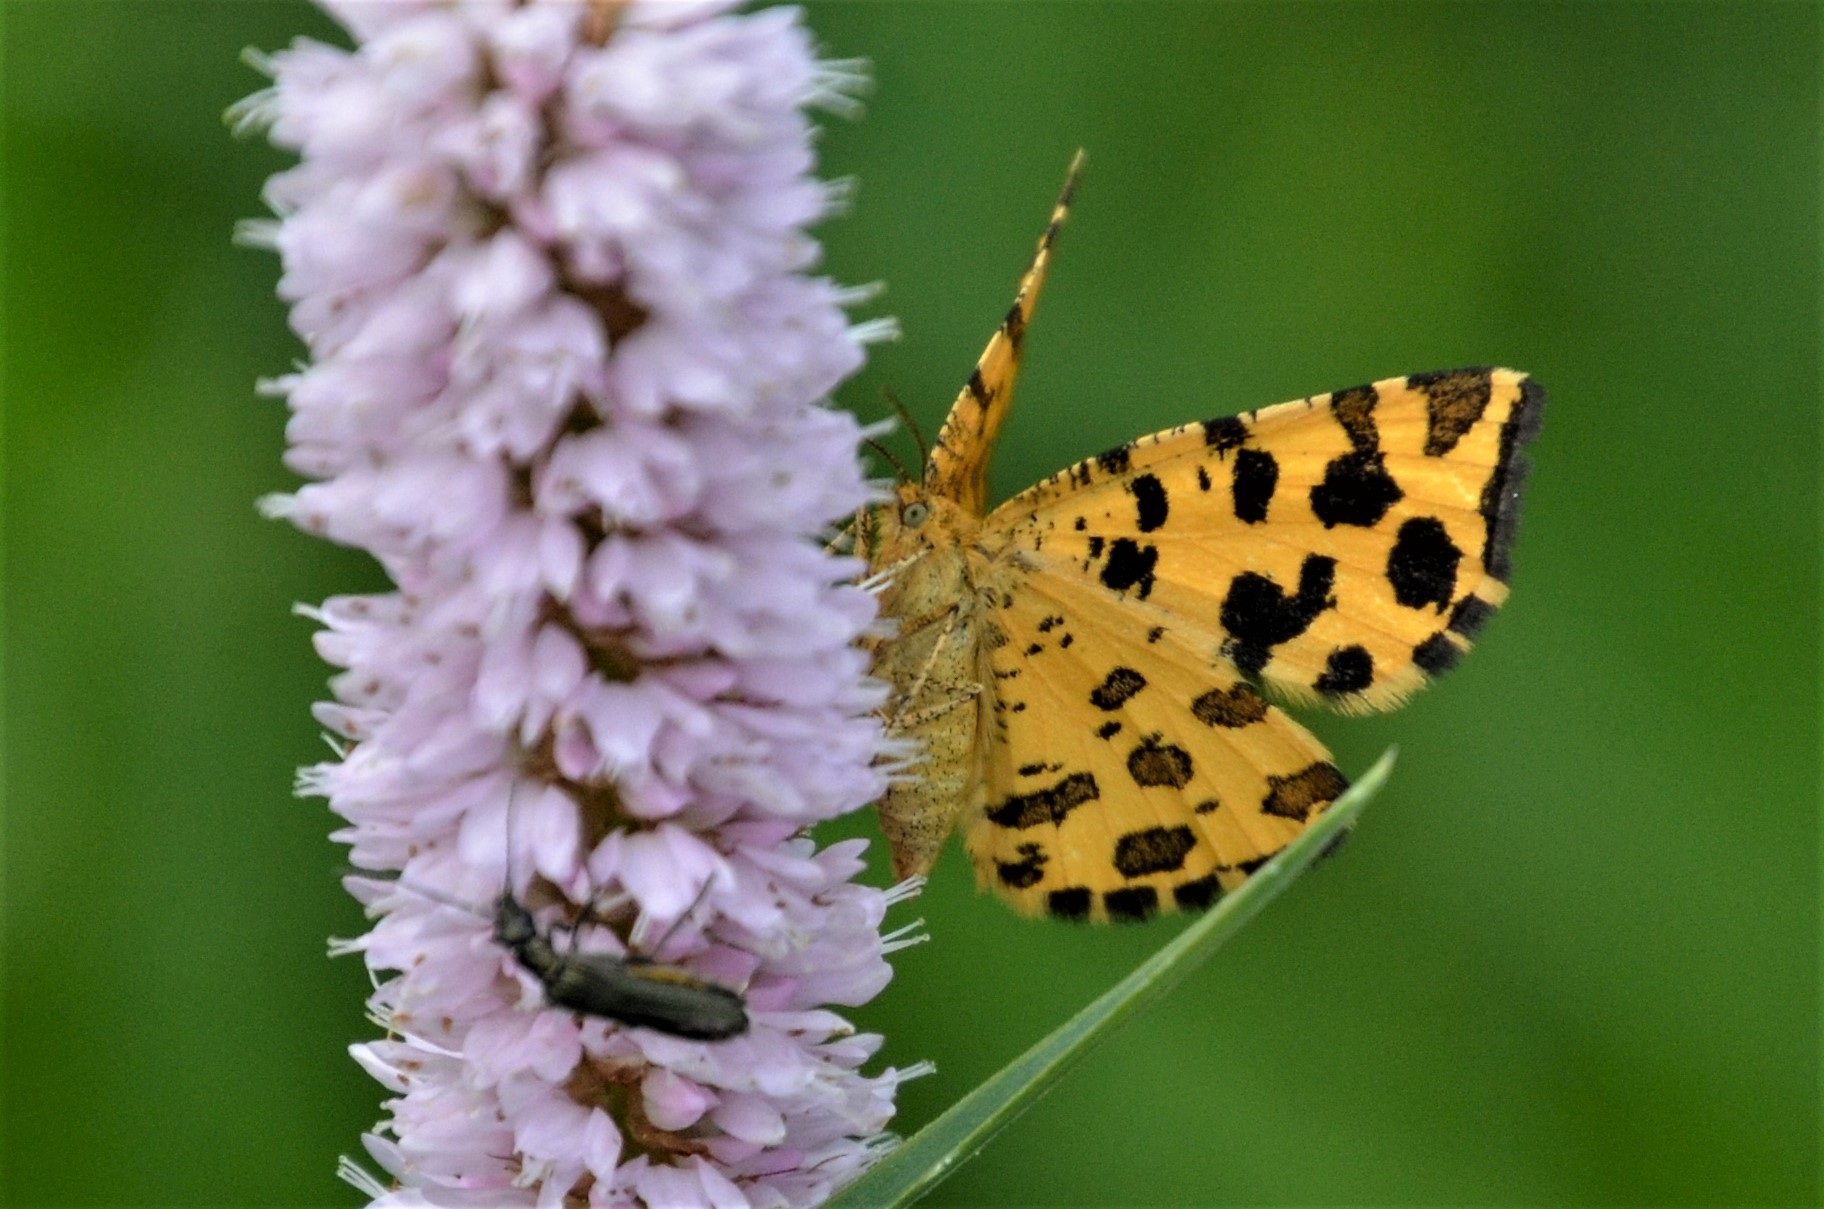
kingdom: Animalia
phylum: Arthropoda
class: Insecta
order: Lepidoptera
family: Geometridae
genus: Pseudopanthera
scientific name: Pseudopanthera macularia
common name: Speckled yellow
